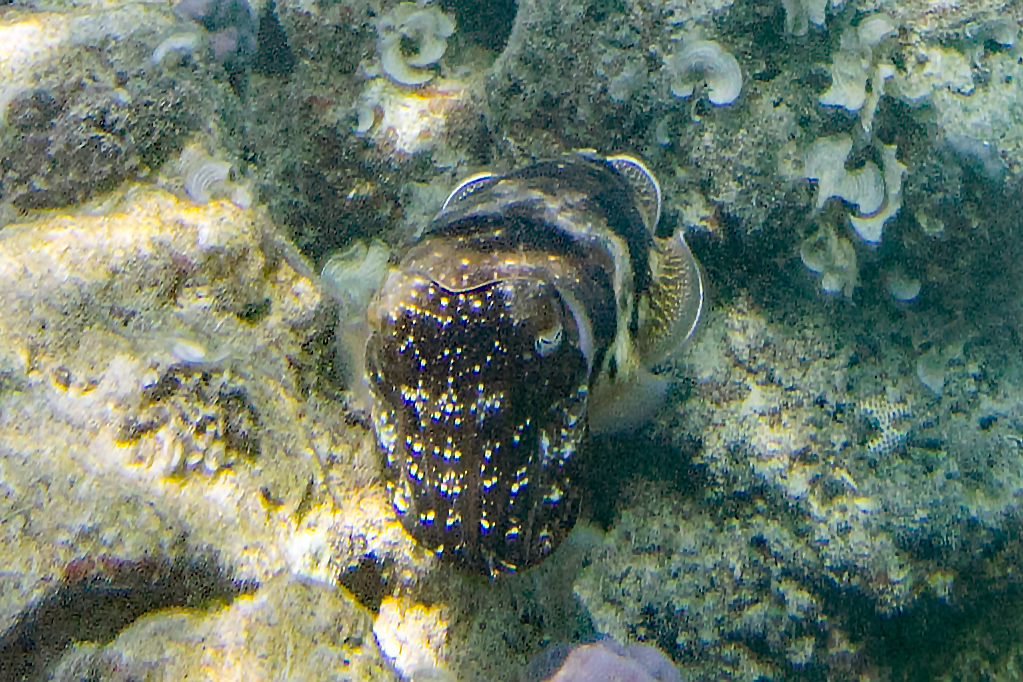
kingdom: Animalia
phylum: Mollusca
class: Cephalopoda
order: Sepiida
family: Sepiidae
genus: Ascarosepion
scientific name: Ascarosepion latimanus
